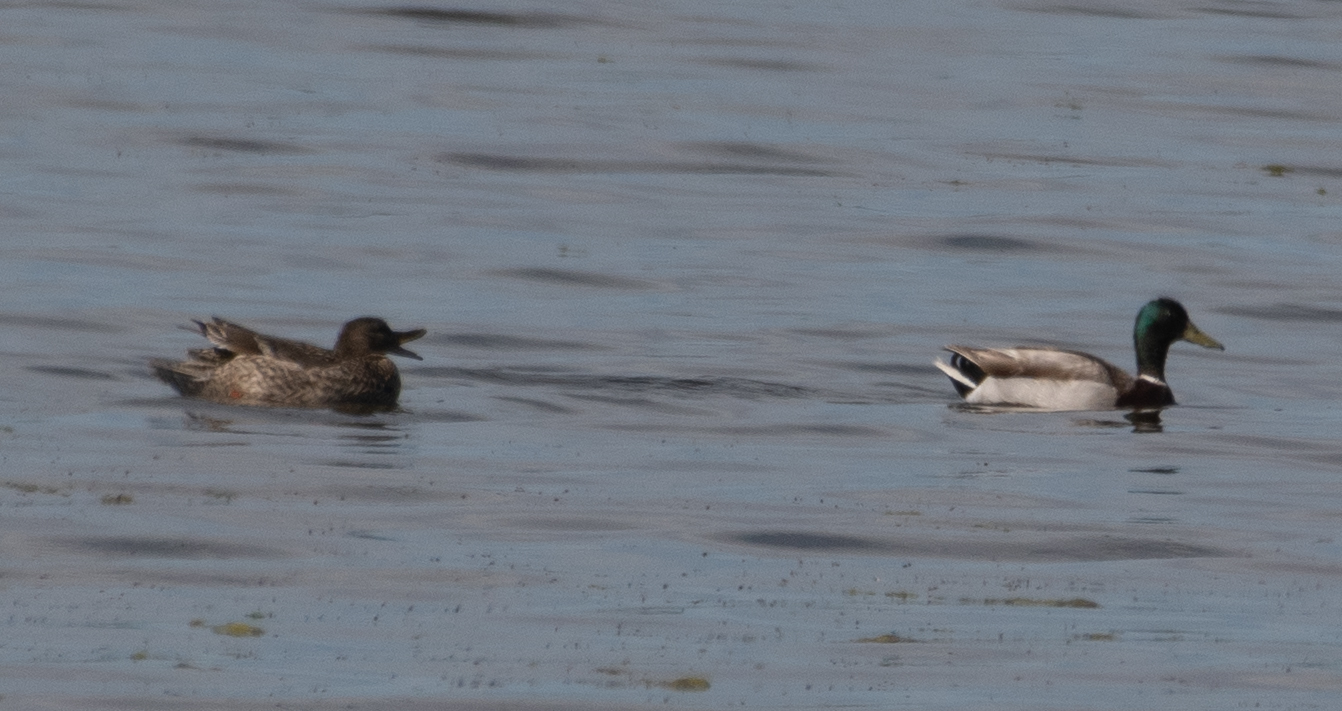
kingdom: Animalia
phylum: Chordata
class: Aves
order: Anseriformes
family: Anatidae
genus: Anas
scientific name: Anas platyrhynchos
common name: Mallard
